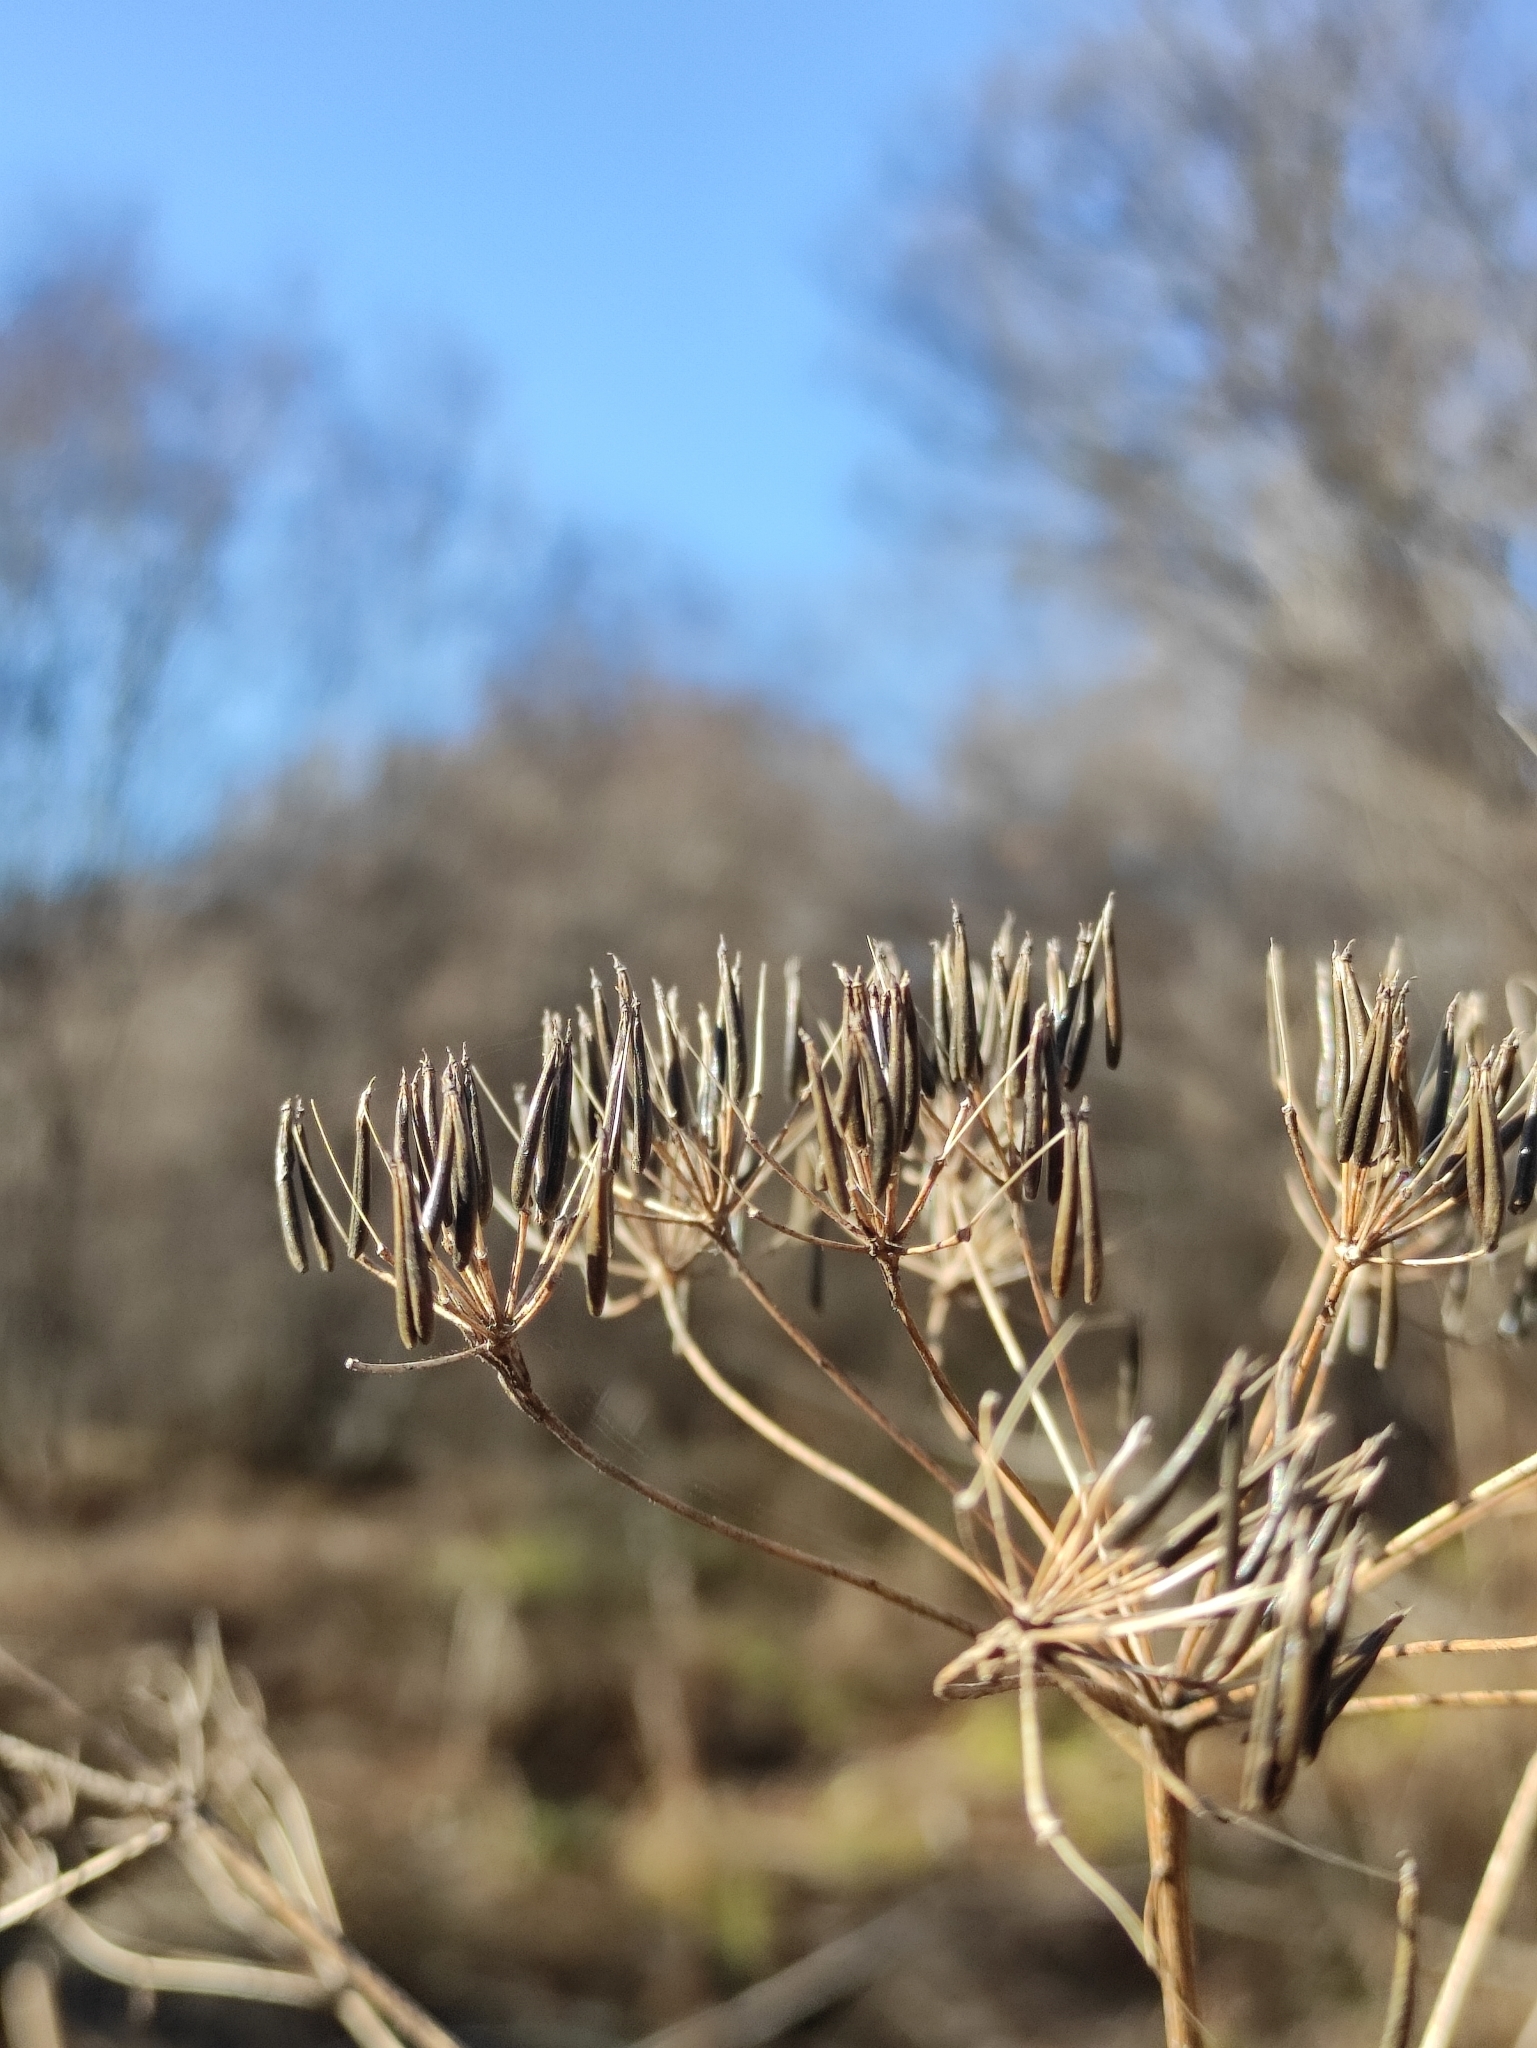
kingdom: Plantae
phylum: Tracheophyta
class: Magnoliopsida
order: Apiales
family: Apiaceae
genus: Anthriscus
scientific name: Anthriscus sylvestris
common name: Cow parsley
